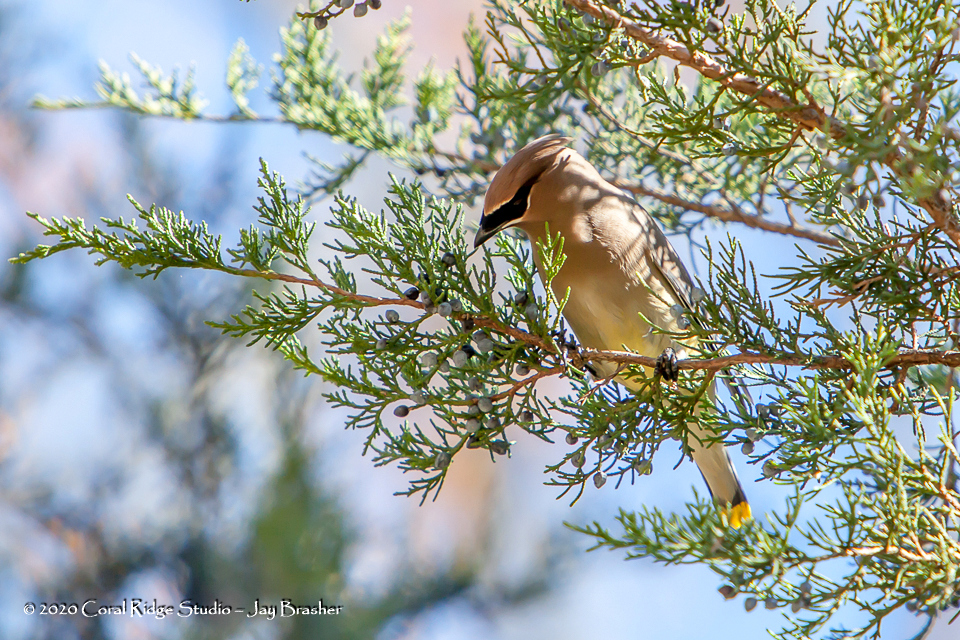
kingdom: Animalia
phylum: Chordata
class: Aves
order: Passeriformes
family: Bombycillidae
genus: Bombycilla
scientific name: Bombycilla cedrorum
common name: Cedar waxwing
